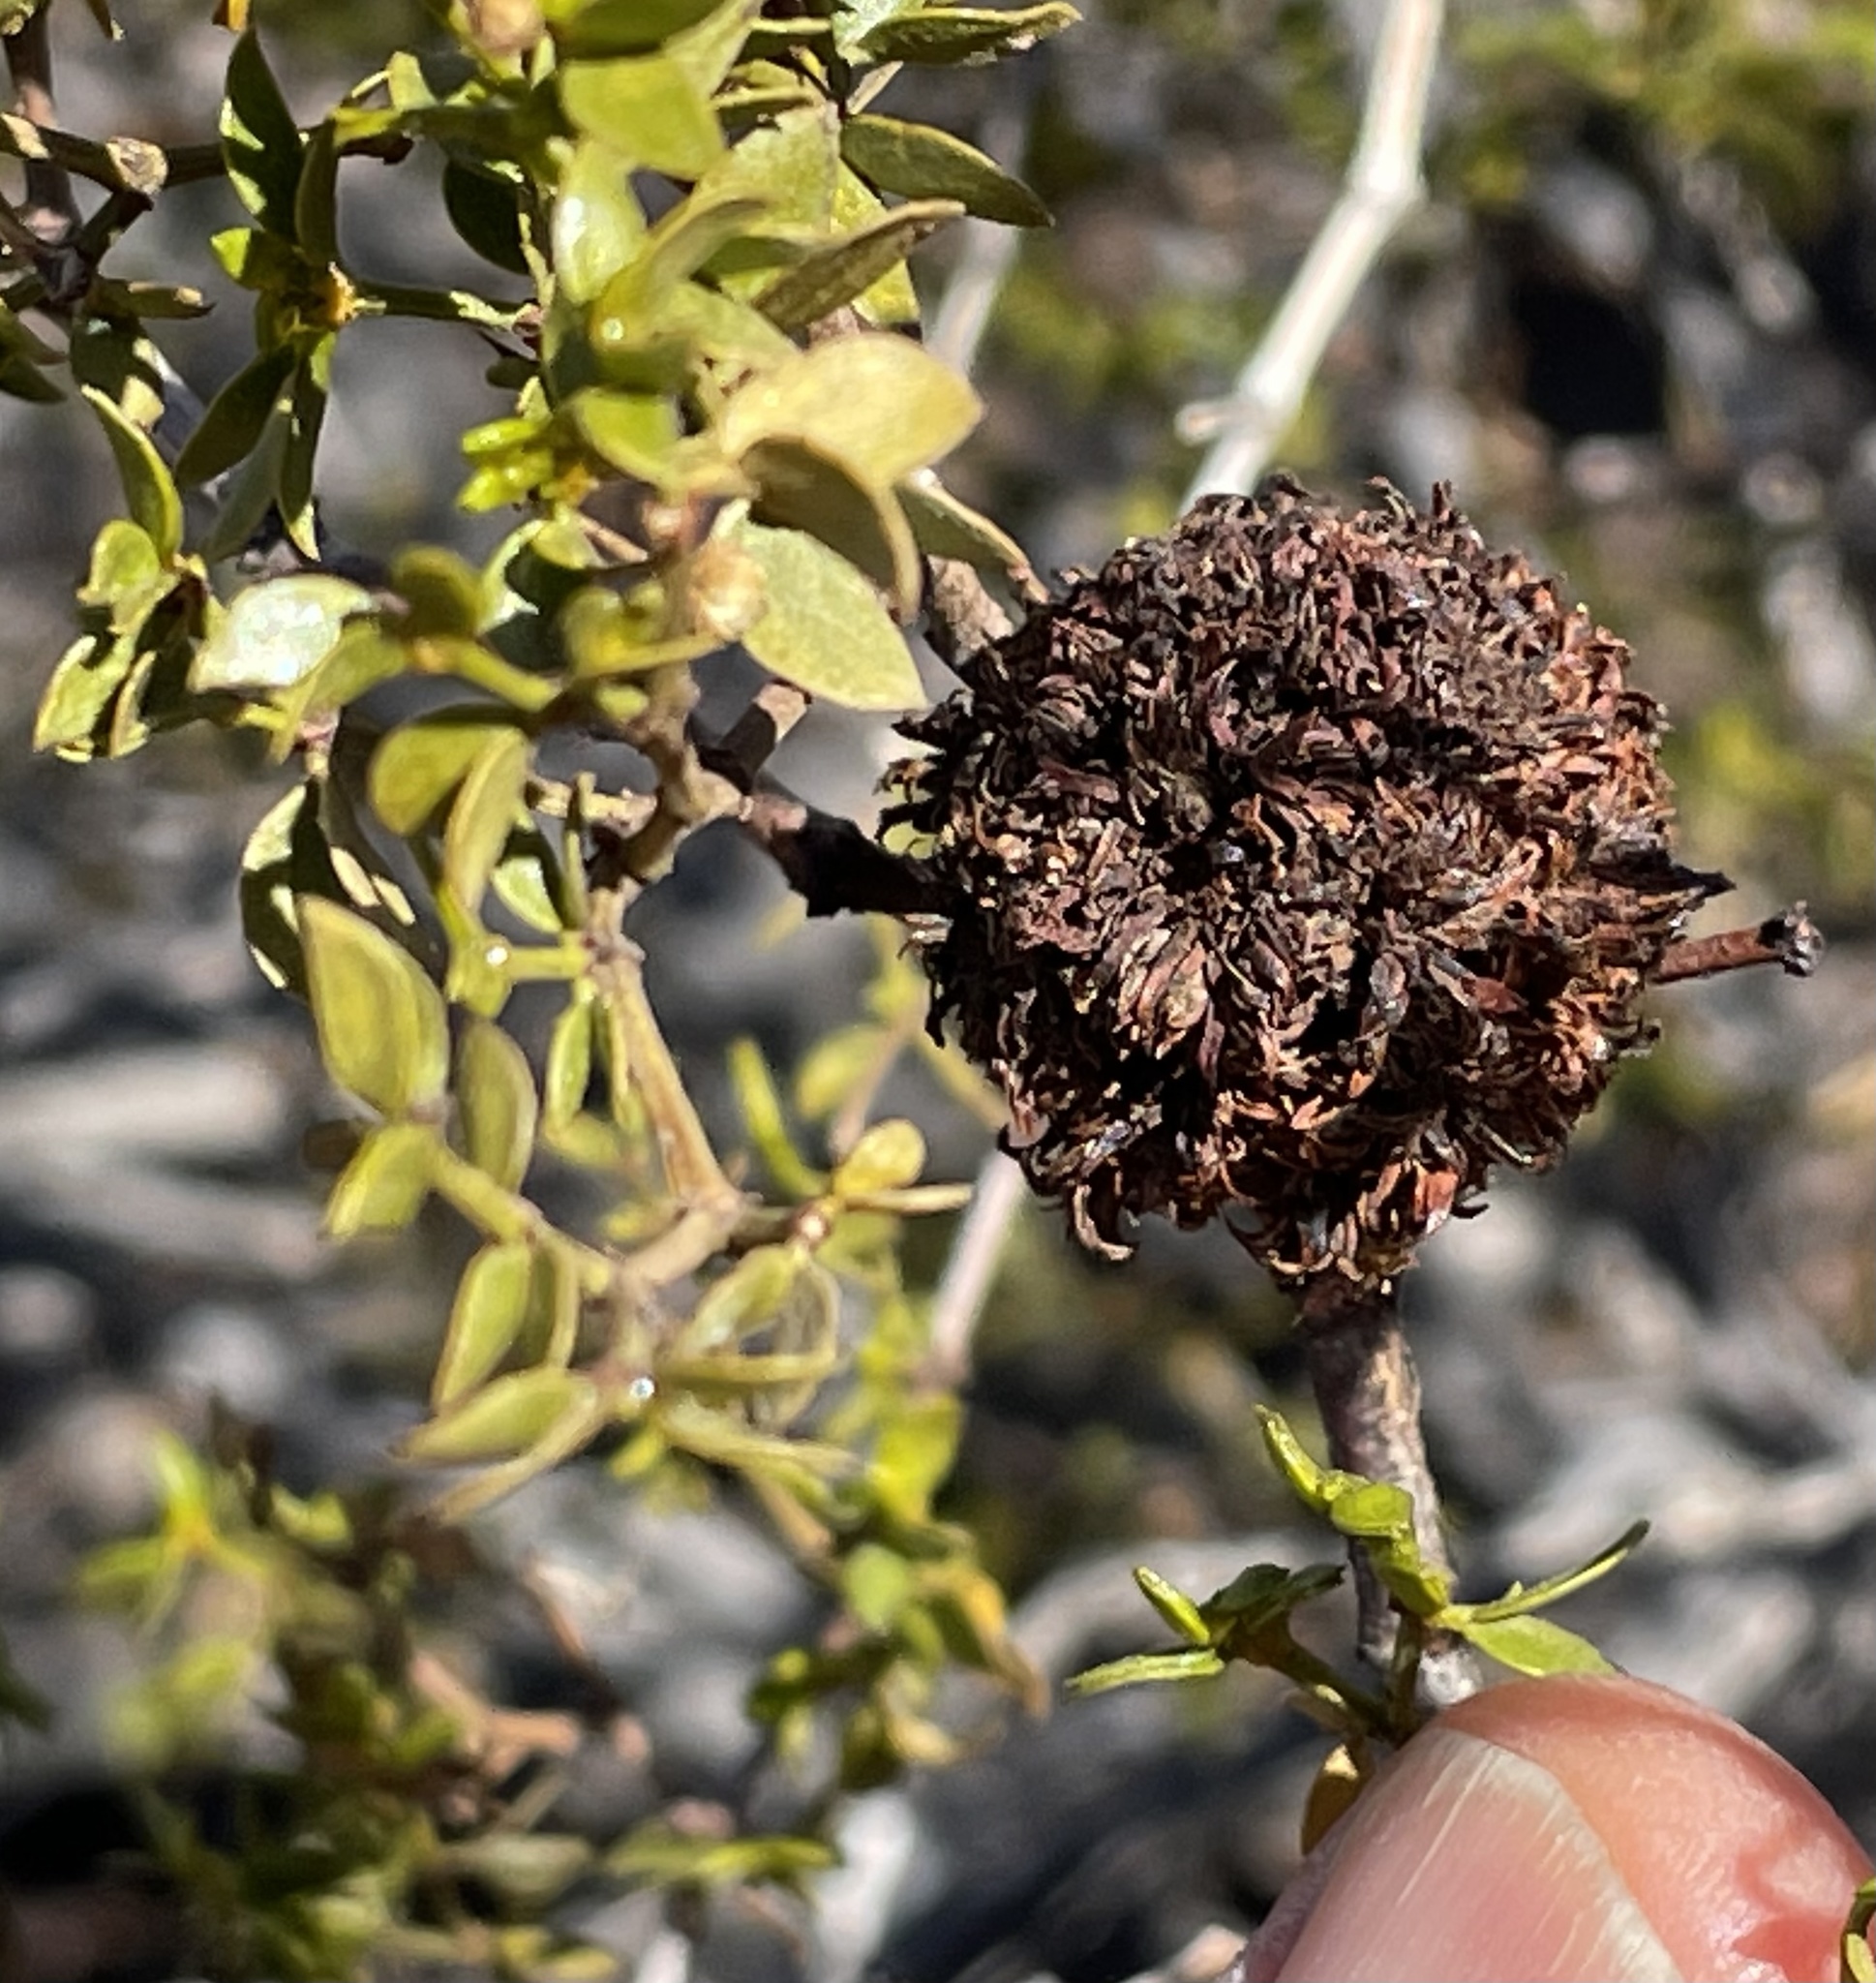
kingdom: Animalia
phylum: Arthropoda
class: Insecta
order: Diptera
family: Cecidomyiidae
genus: Asphondylia
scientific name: Asphondylia auripila
